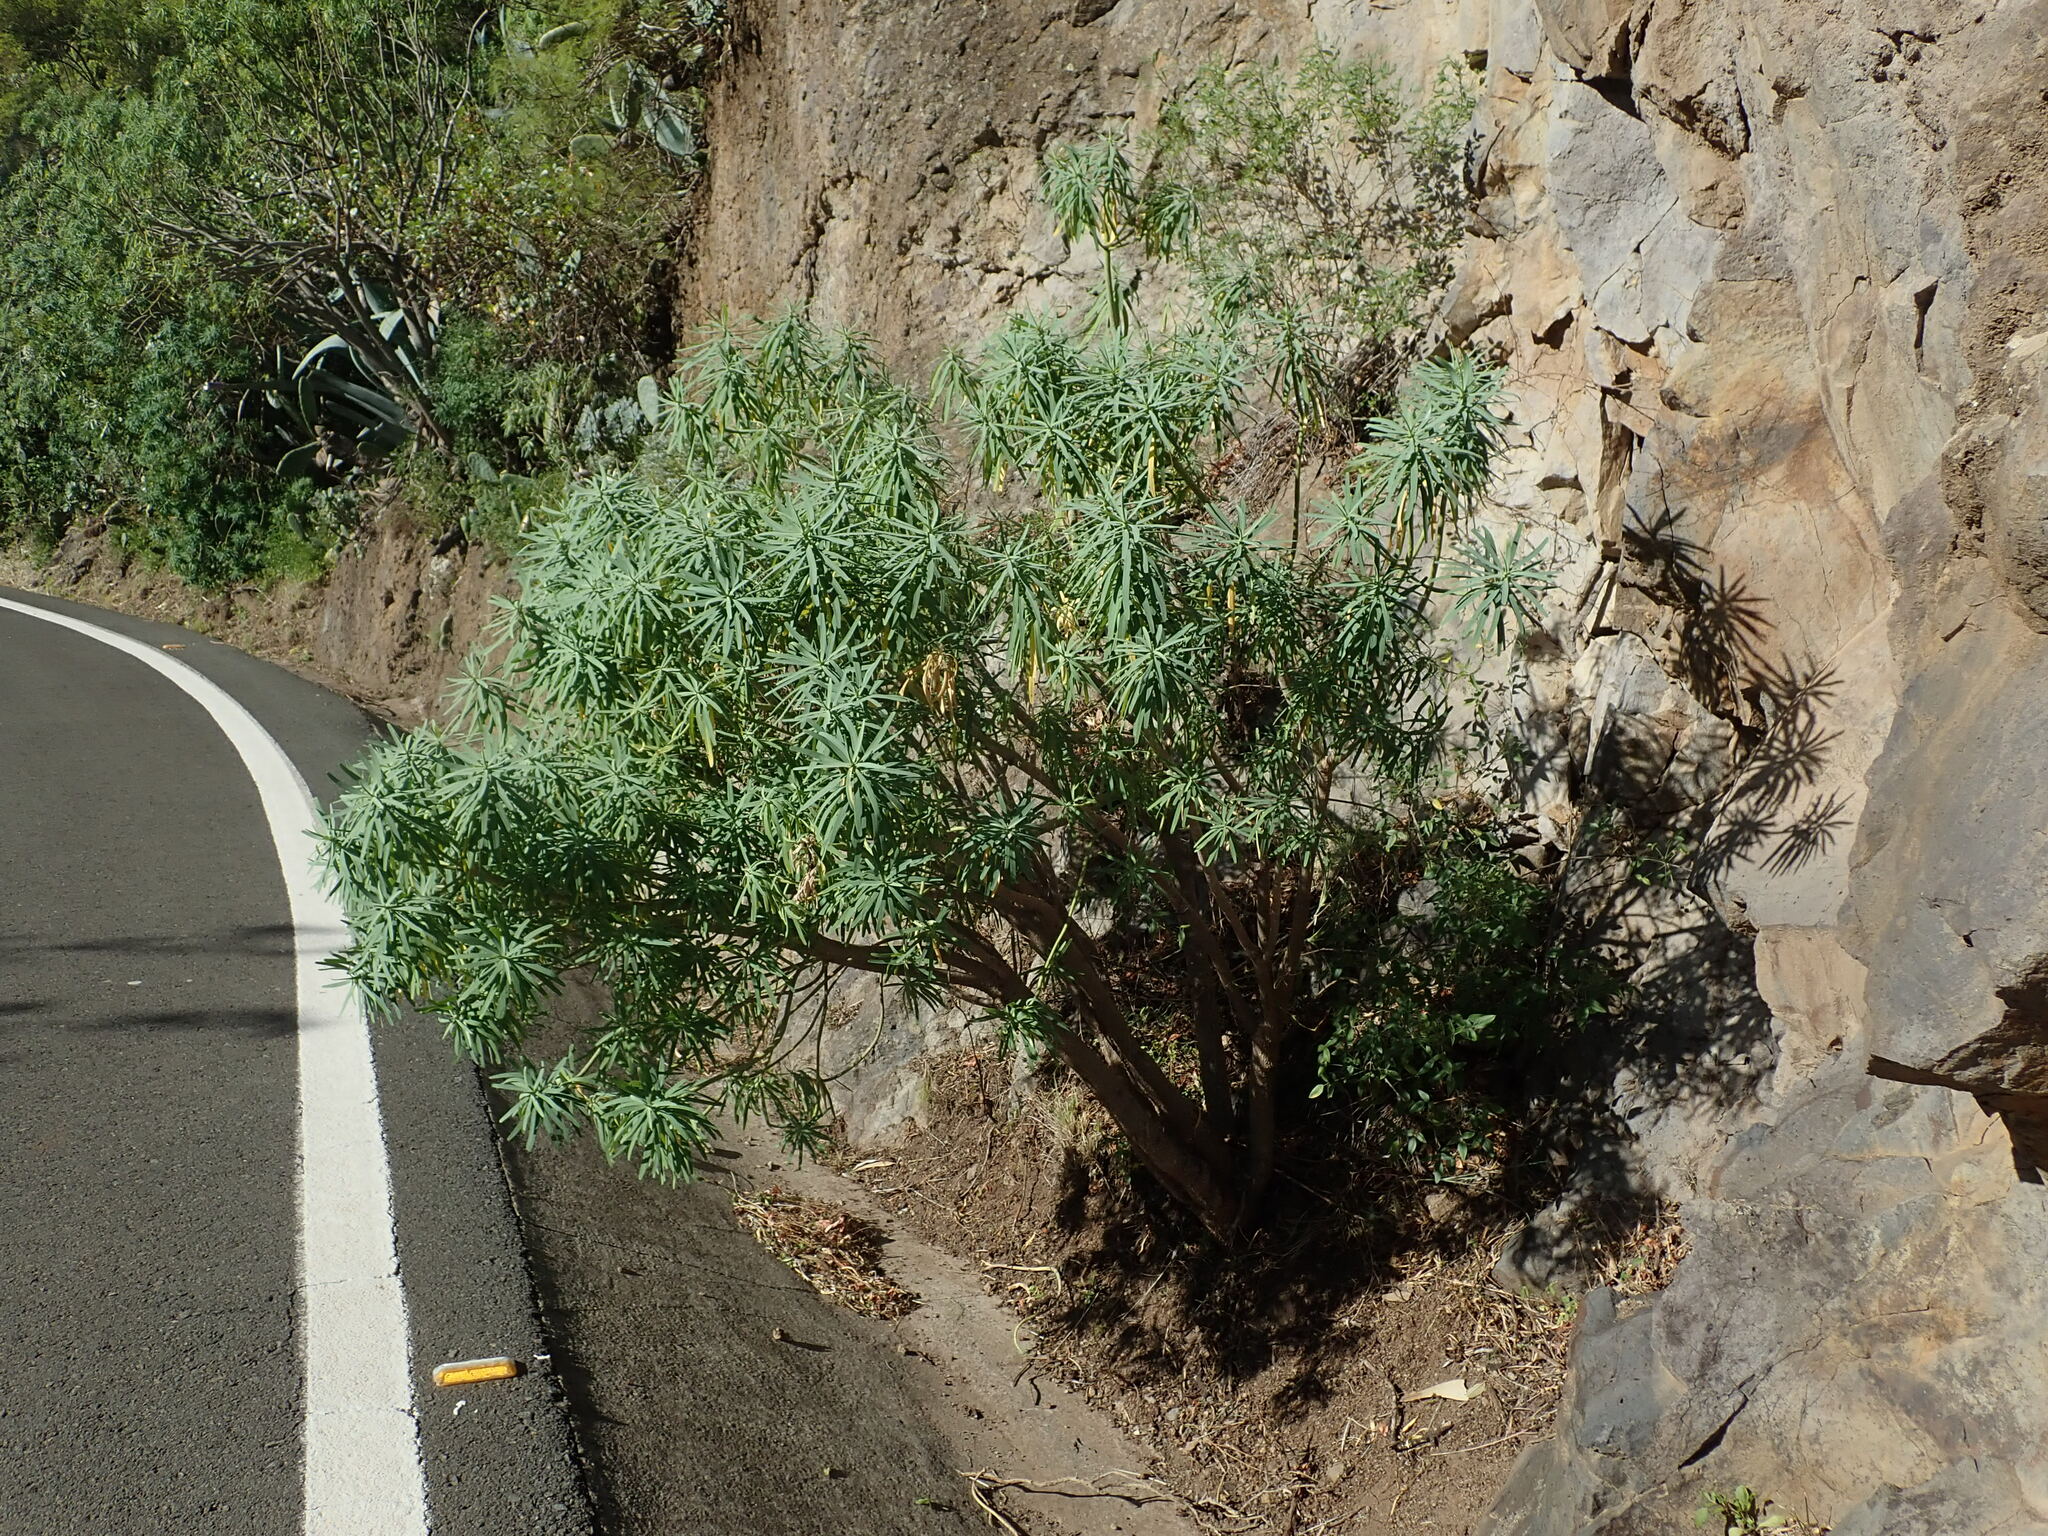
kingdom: Plantae
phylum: Tracheophyta
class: Magnoliopsida
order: Malpighiales
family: Euphorbiaceae
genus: Euphorbia
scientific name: Euphorbia regis-jubae
